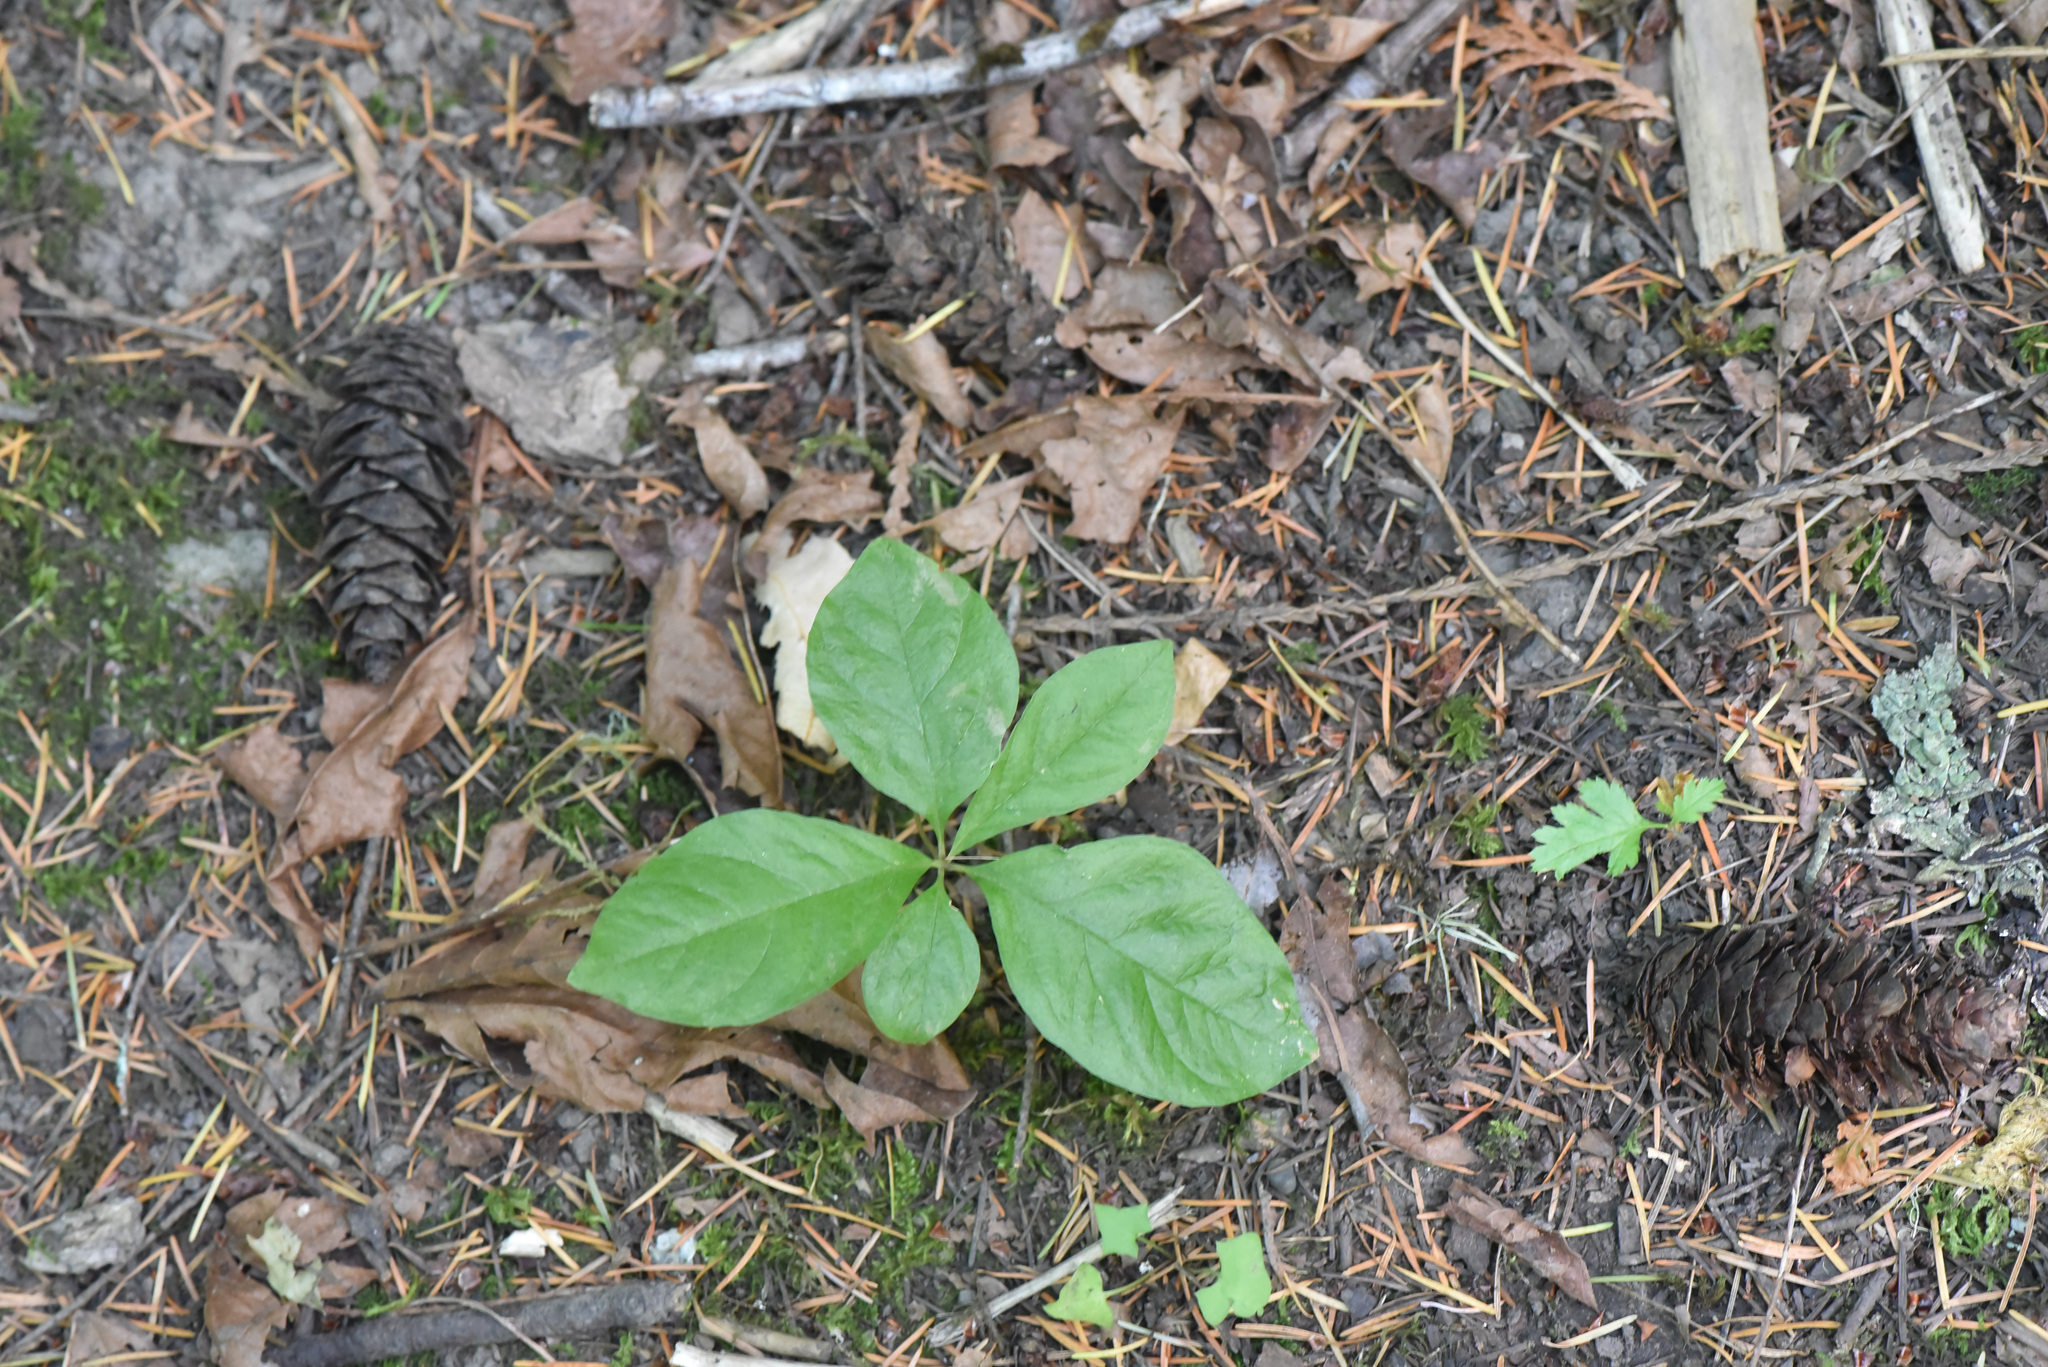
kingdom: Plantae
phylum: Tracheophyta
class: Magnoliopsida
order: Ericales
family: Primulaceae
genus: Lysimachia
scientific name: Lysimachia latifolia
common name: Pacific starflower
